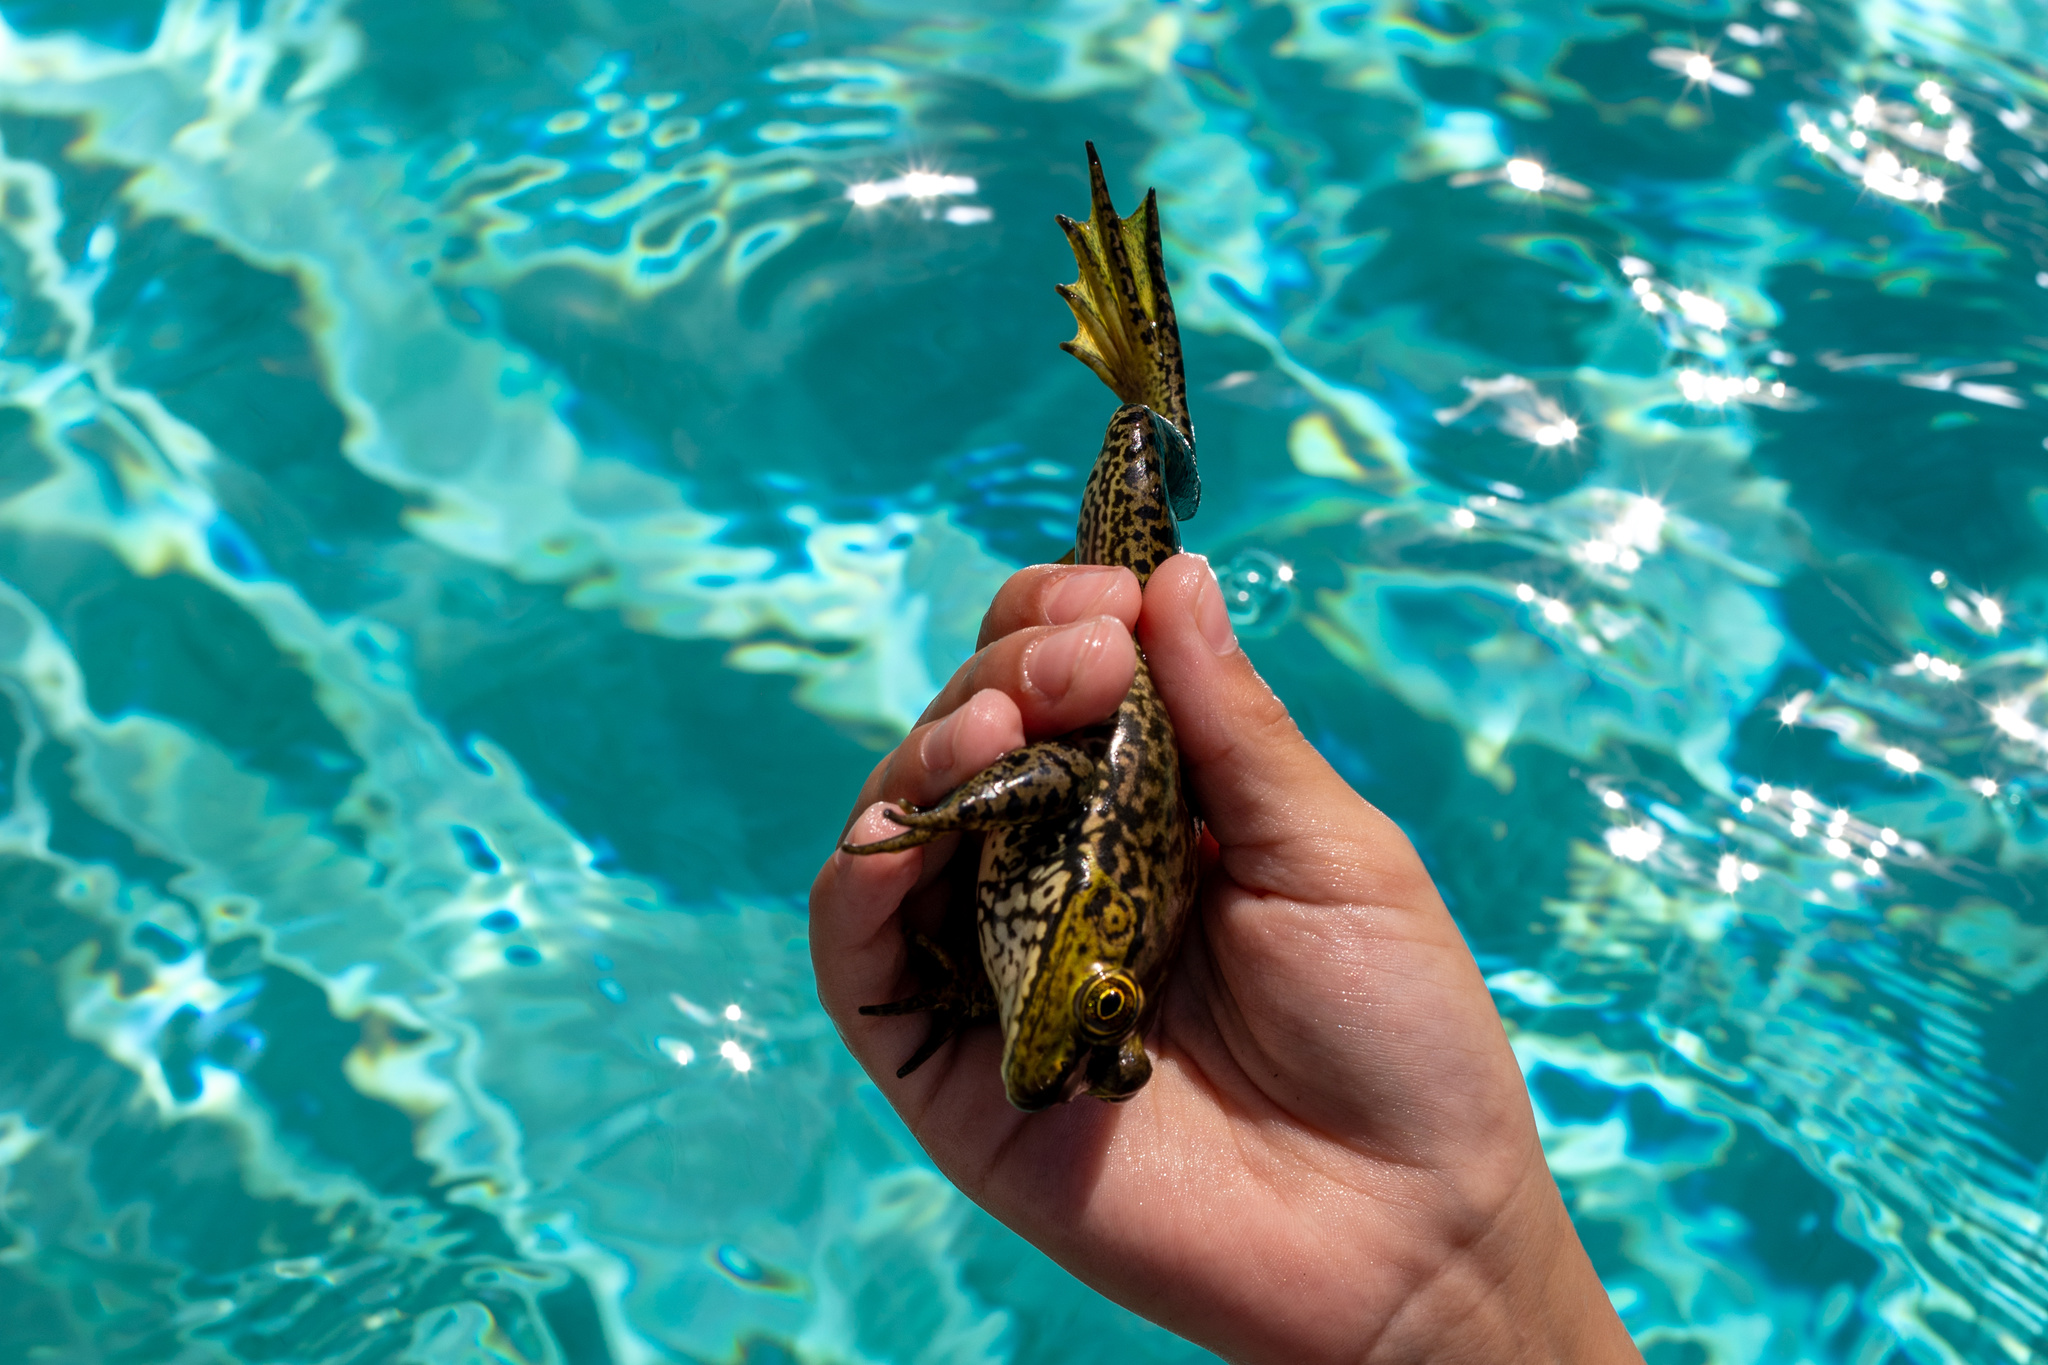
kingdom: Animalia
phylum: Chordata
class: Amphibia
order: Anura
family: Ranidae
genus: Lithobates
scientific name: Lithobates catesbeianus
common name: American bullfrog
